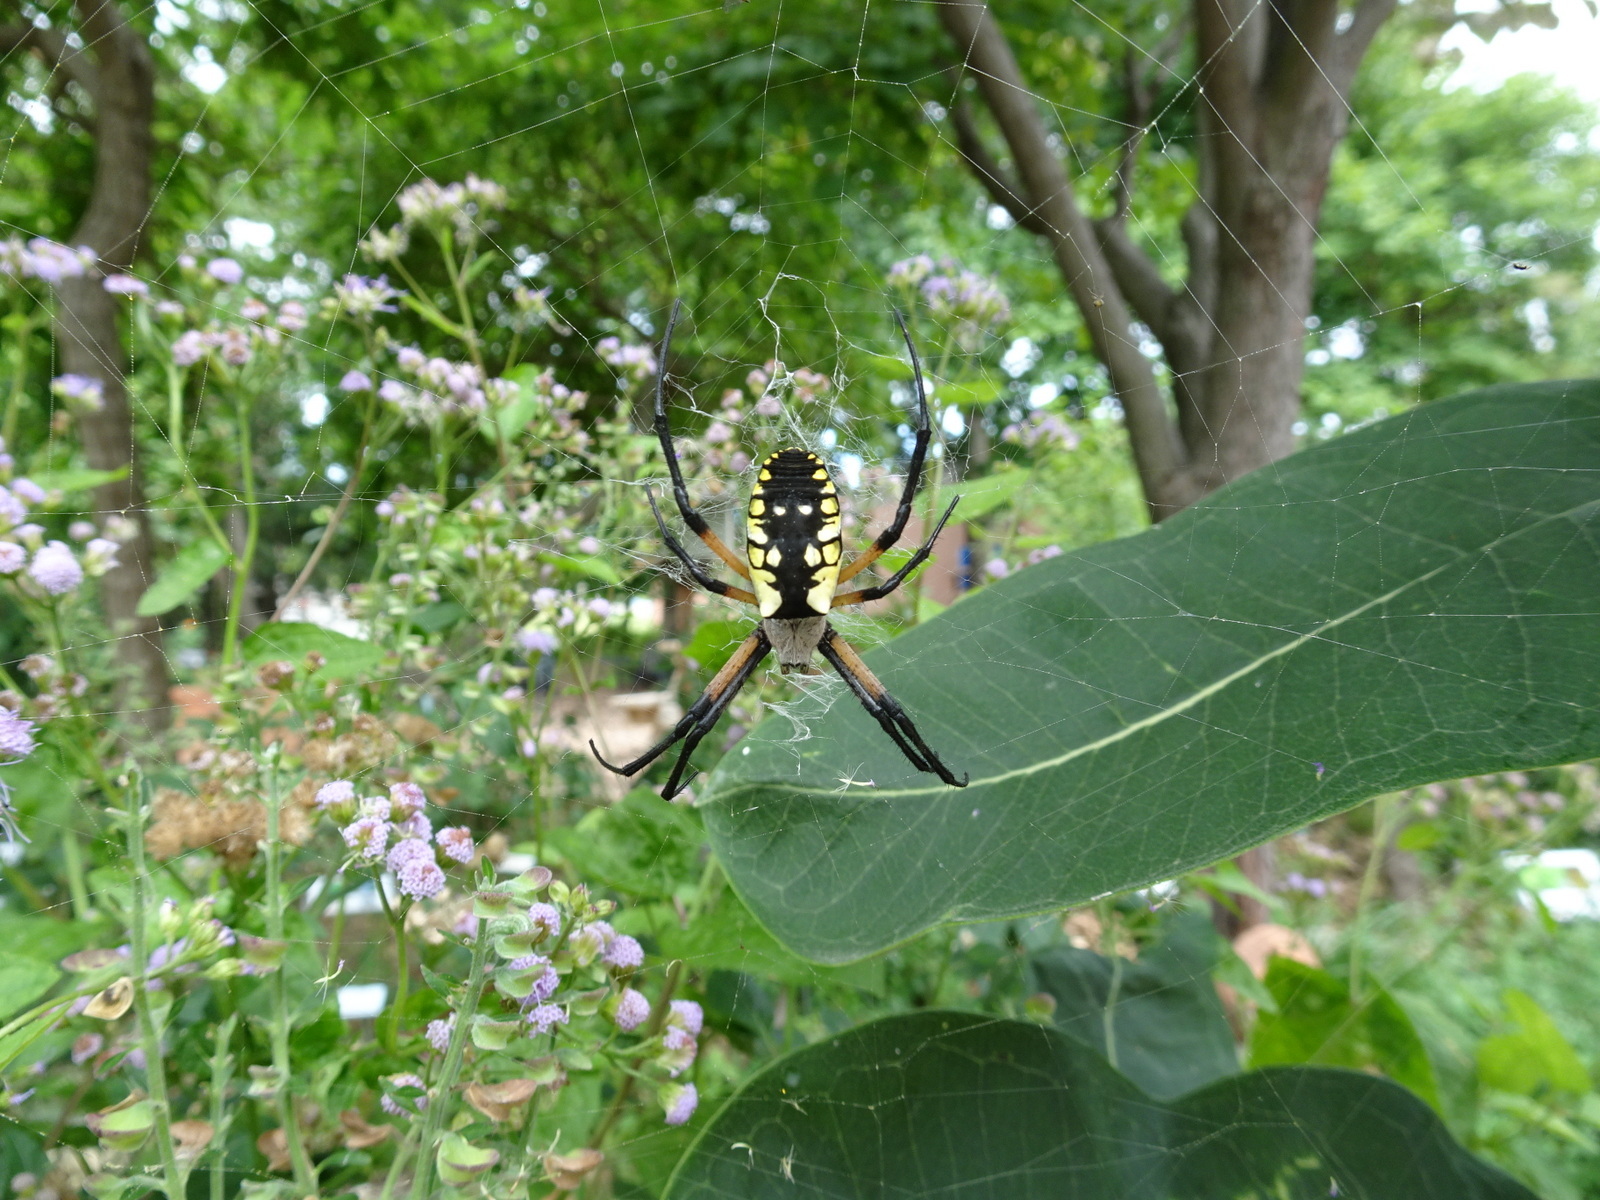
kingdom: Animalia
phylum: Arthropoda
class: Arachnida
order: Araneae
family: Araneidae
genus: Argiope
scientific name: Argiope aurantia
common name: Orb weavers
